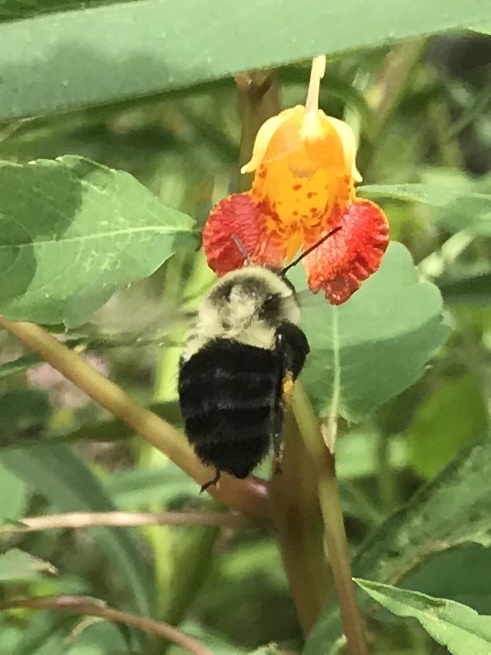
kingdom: Animalia
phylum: Arthropoda
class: Insecta
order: Hymenoptera
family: Apidae
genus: Bombus
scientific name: Bombus impatiens
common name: Common eastern bumble bee
